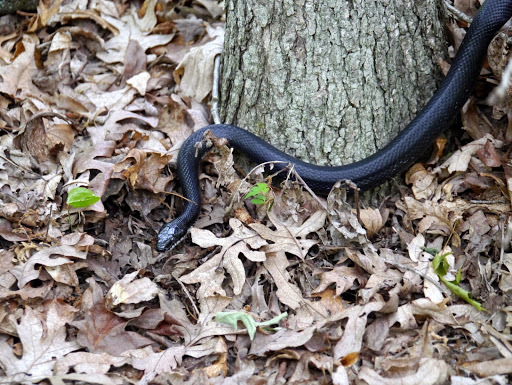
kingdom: Animalia
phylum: Chordata
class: Squamata
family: Colubridae
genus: Pantherophis
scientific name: Pantherophis alleghaniensis
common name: Eastern rat snake
